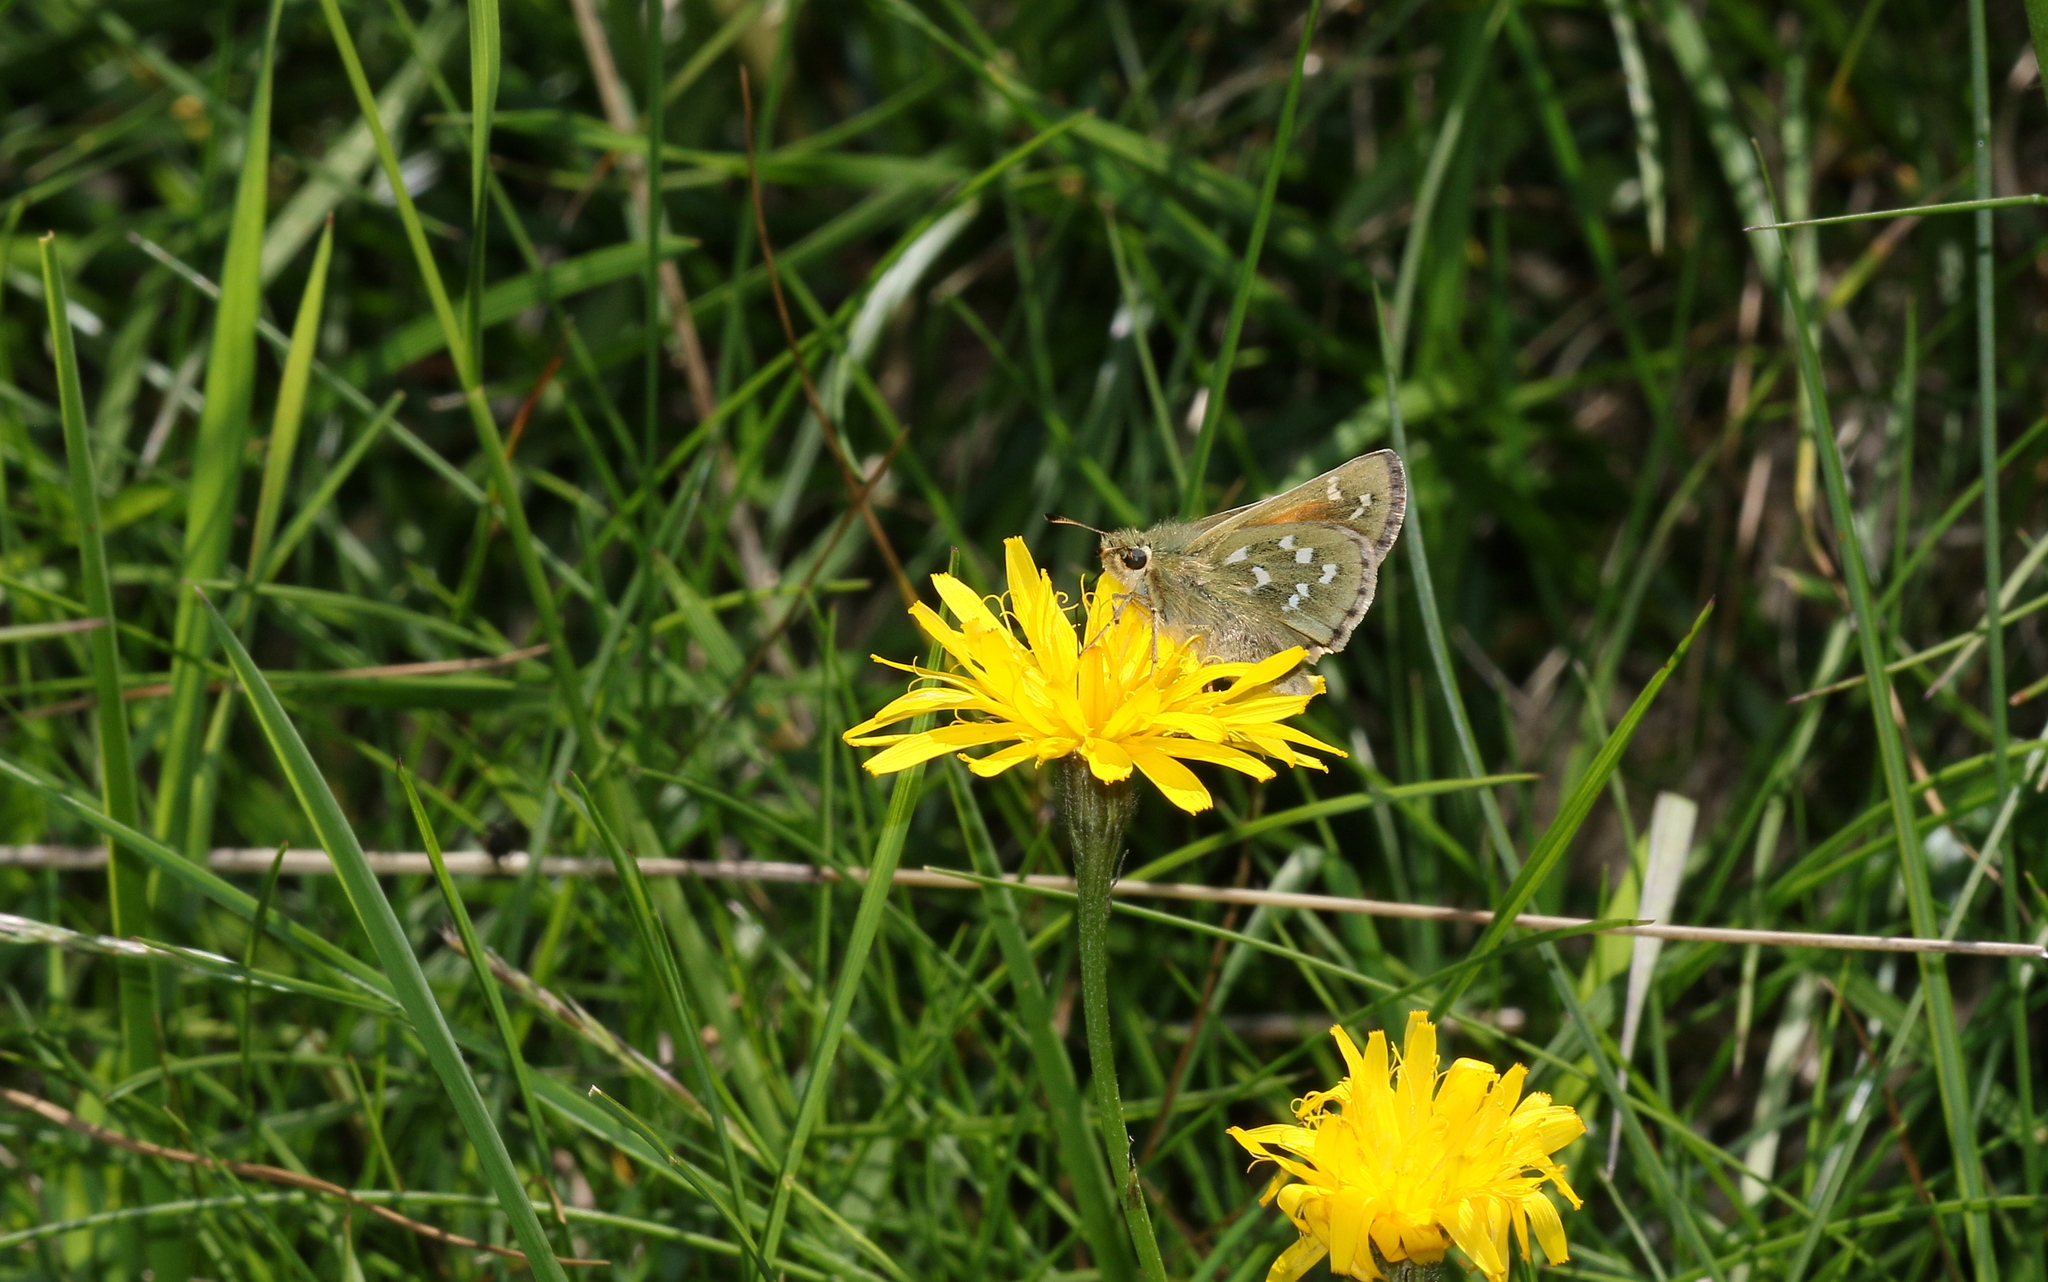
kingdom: Animalia
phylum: Arthropoda
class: Insecta
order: Lepidoptera
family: Hesperiidae
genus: Hesperia
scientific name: Hesperia comma
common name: Common branded skipper
